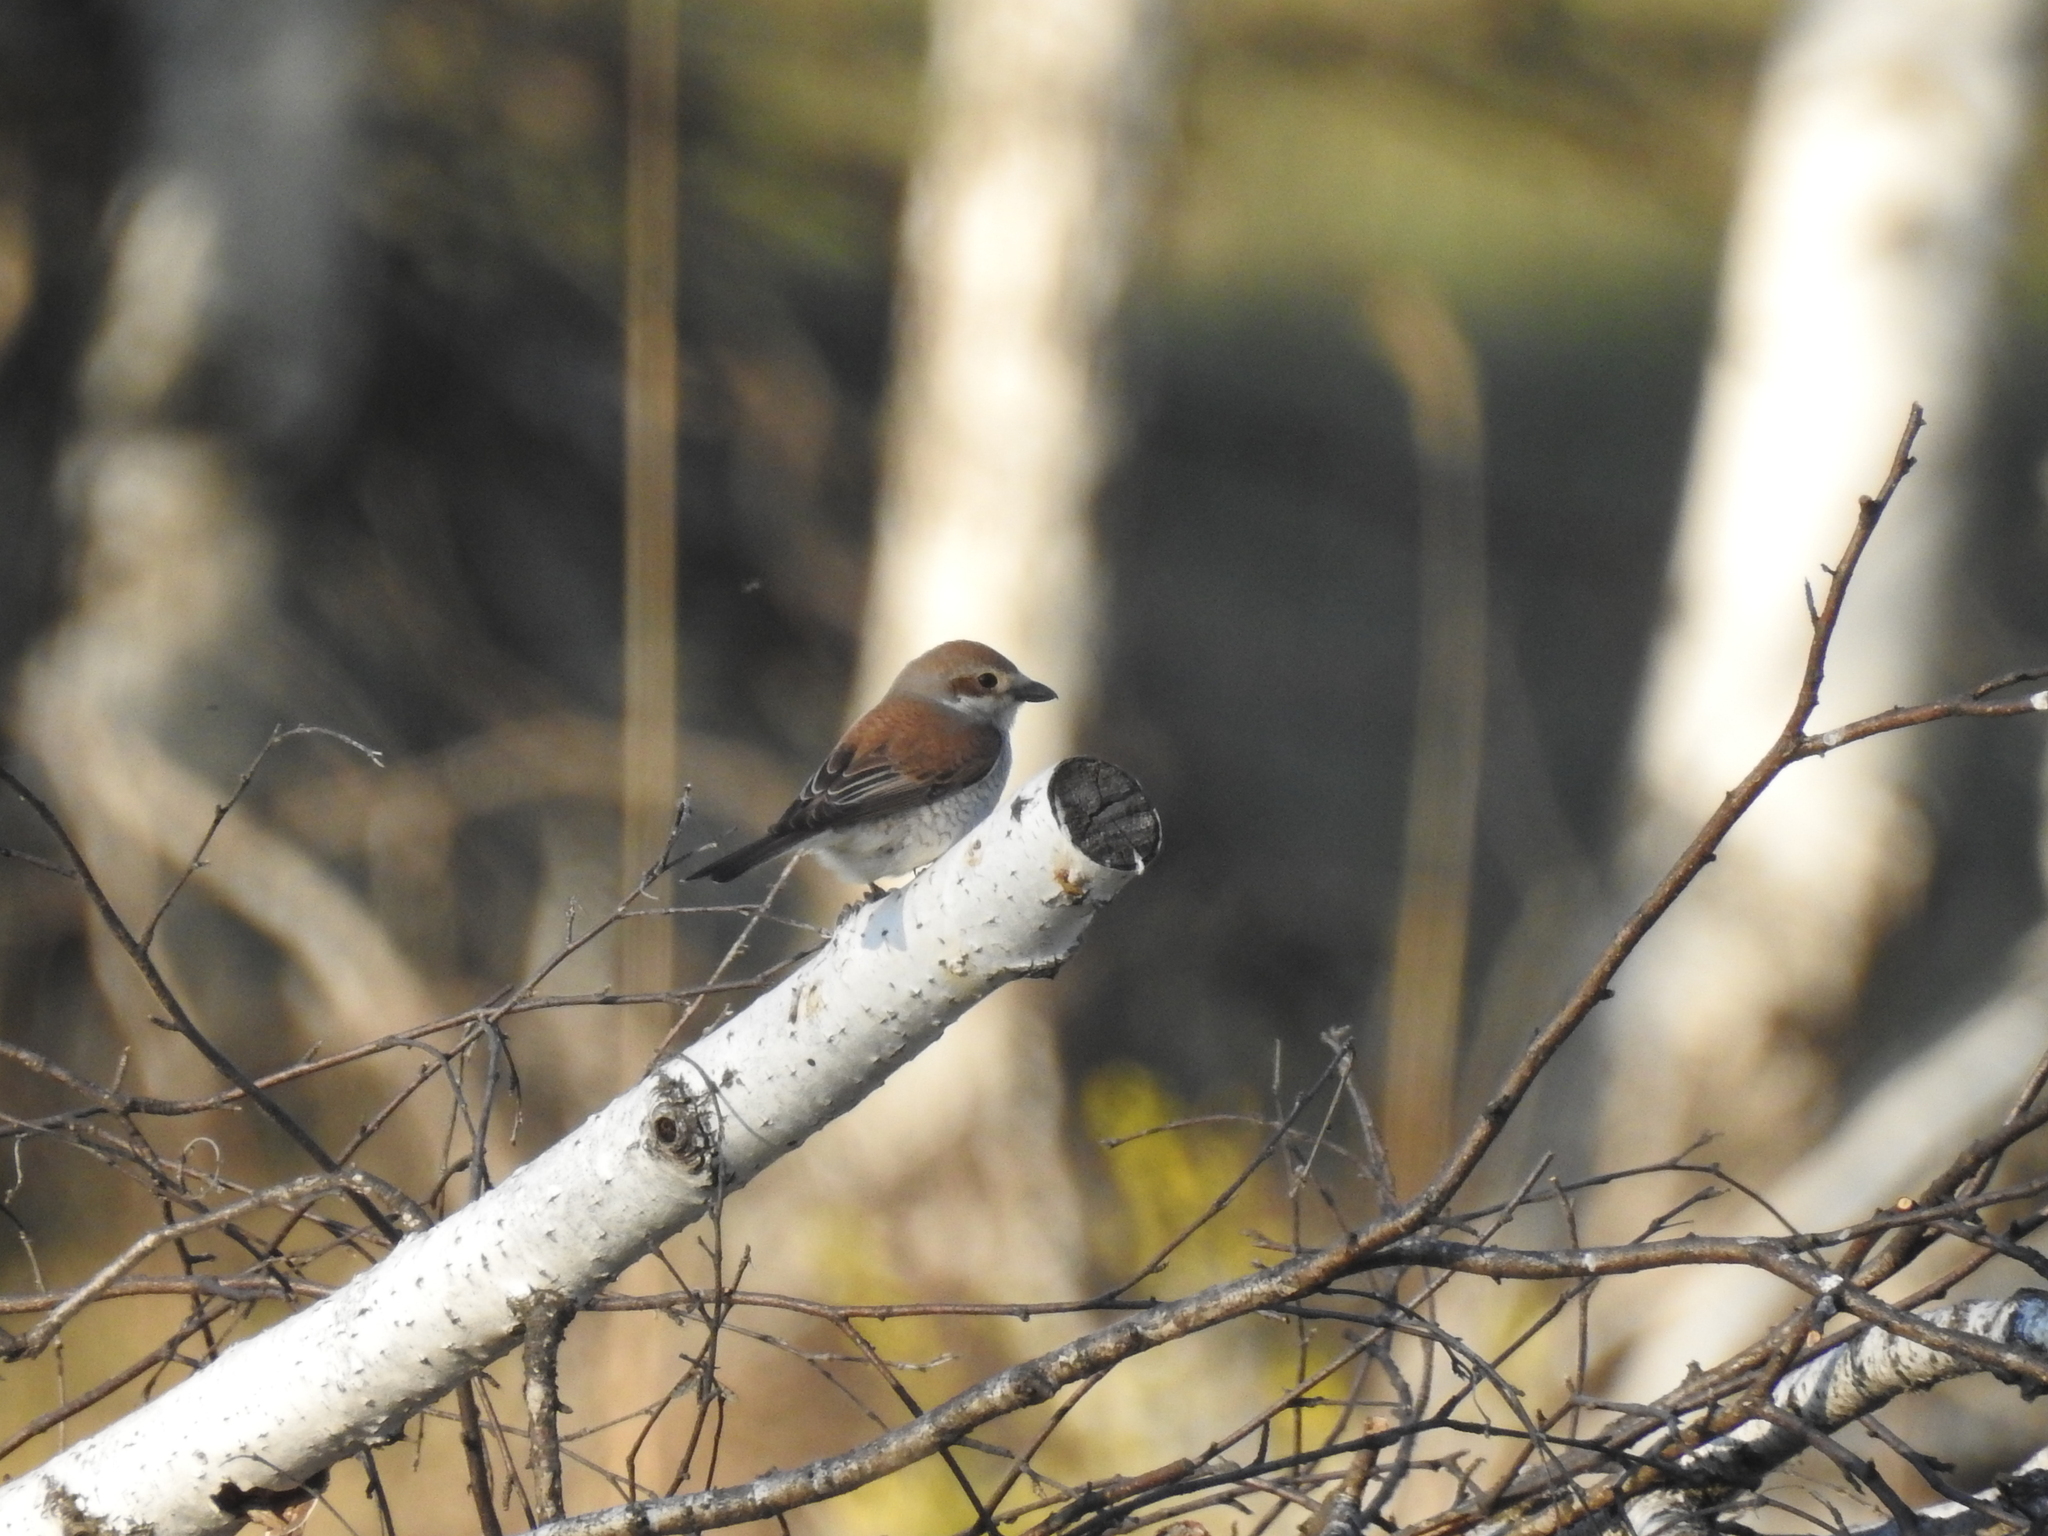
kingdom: Animalia
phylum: Chordata
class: Aves
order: Passeriformes
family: Laniidae
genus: Lanius
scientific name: Lanius collurio
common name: Red-backed shrike
